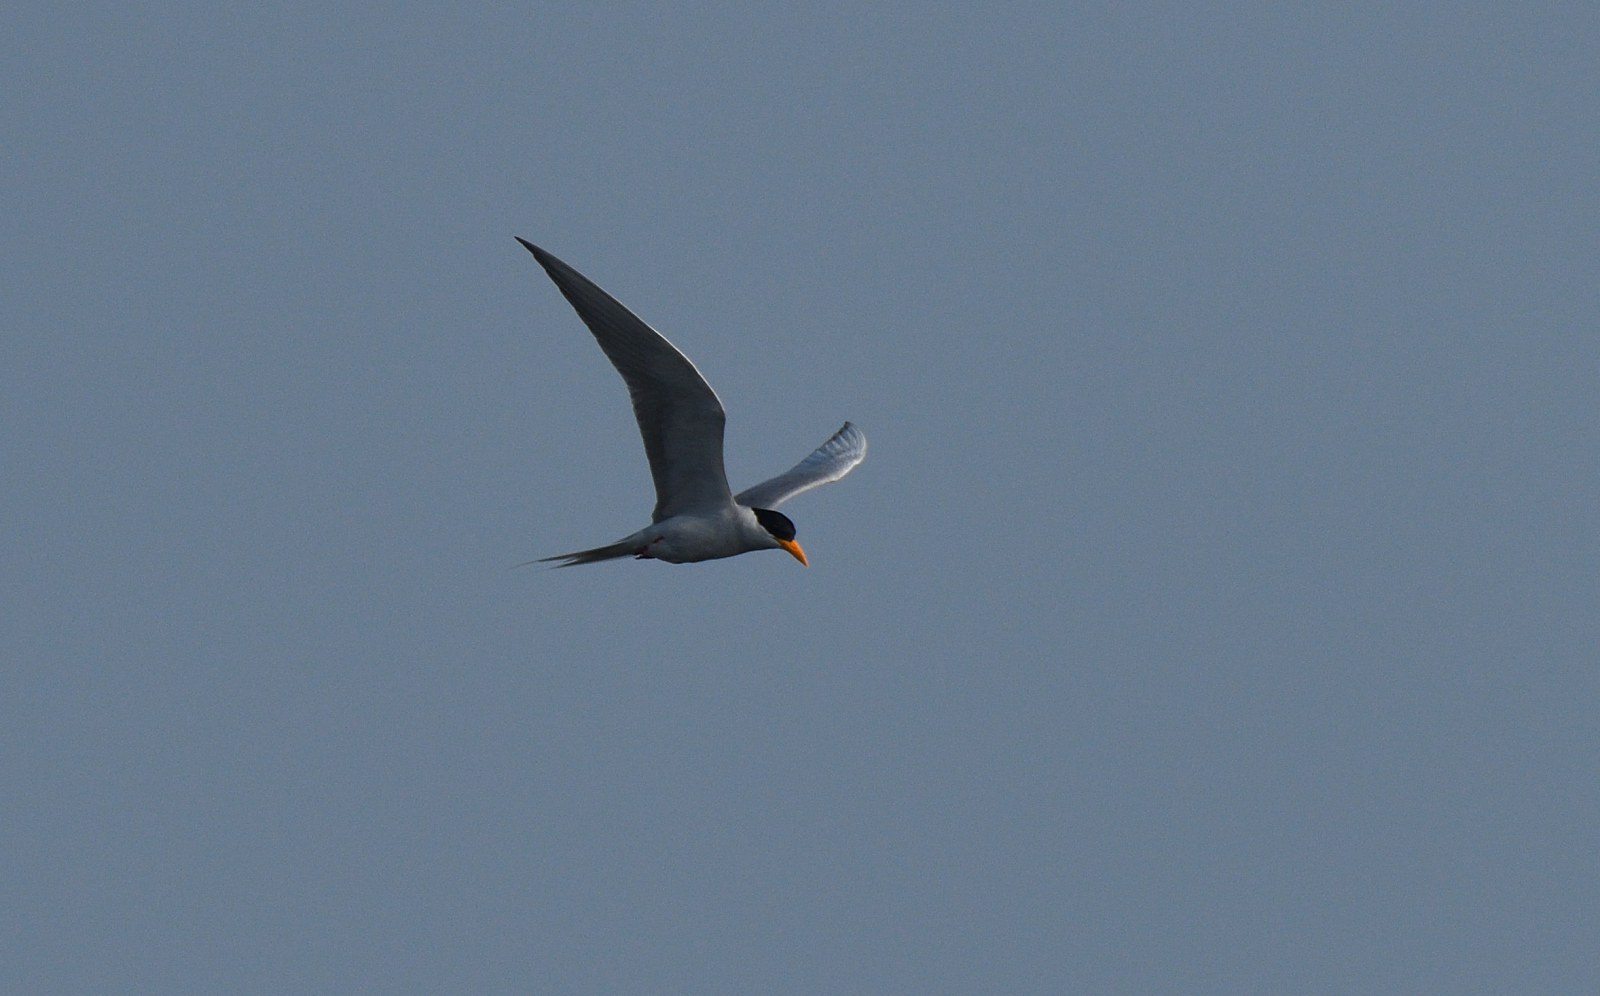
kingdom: Animalia
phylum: Chordata
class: Aves
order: Charadriiformes
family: Laridae
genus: Sterna
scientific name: Sterna aurantia
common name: River tern
